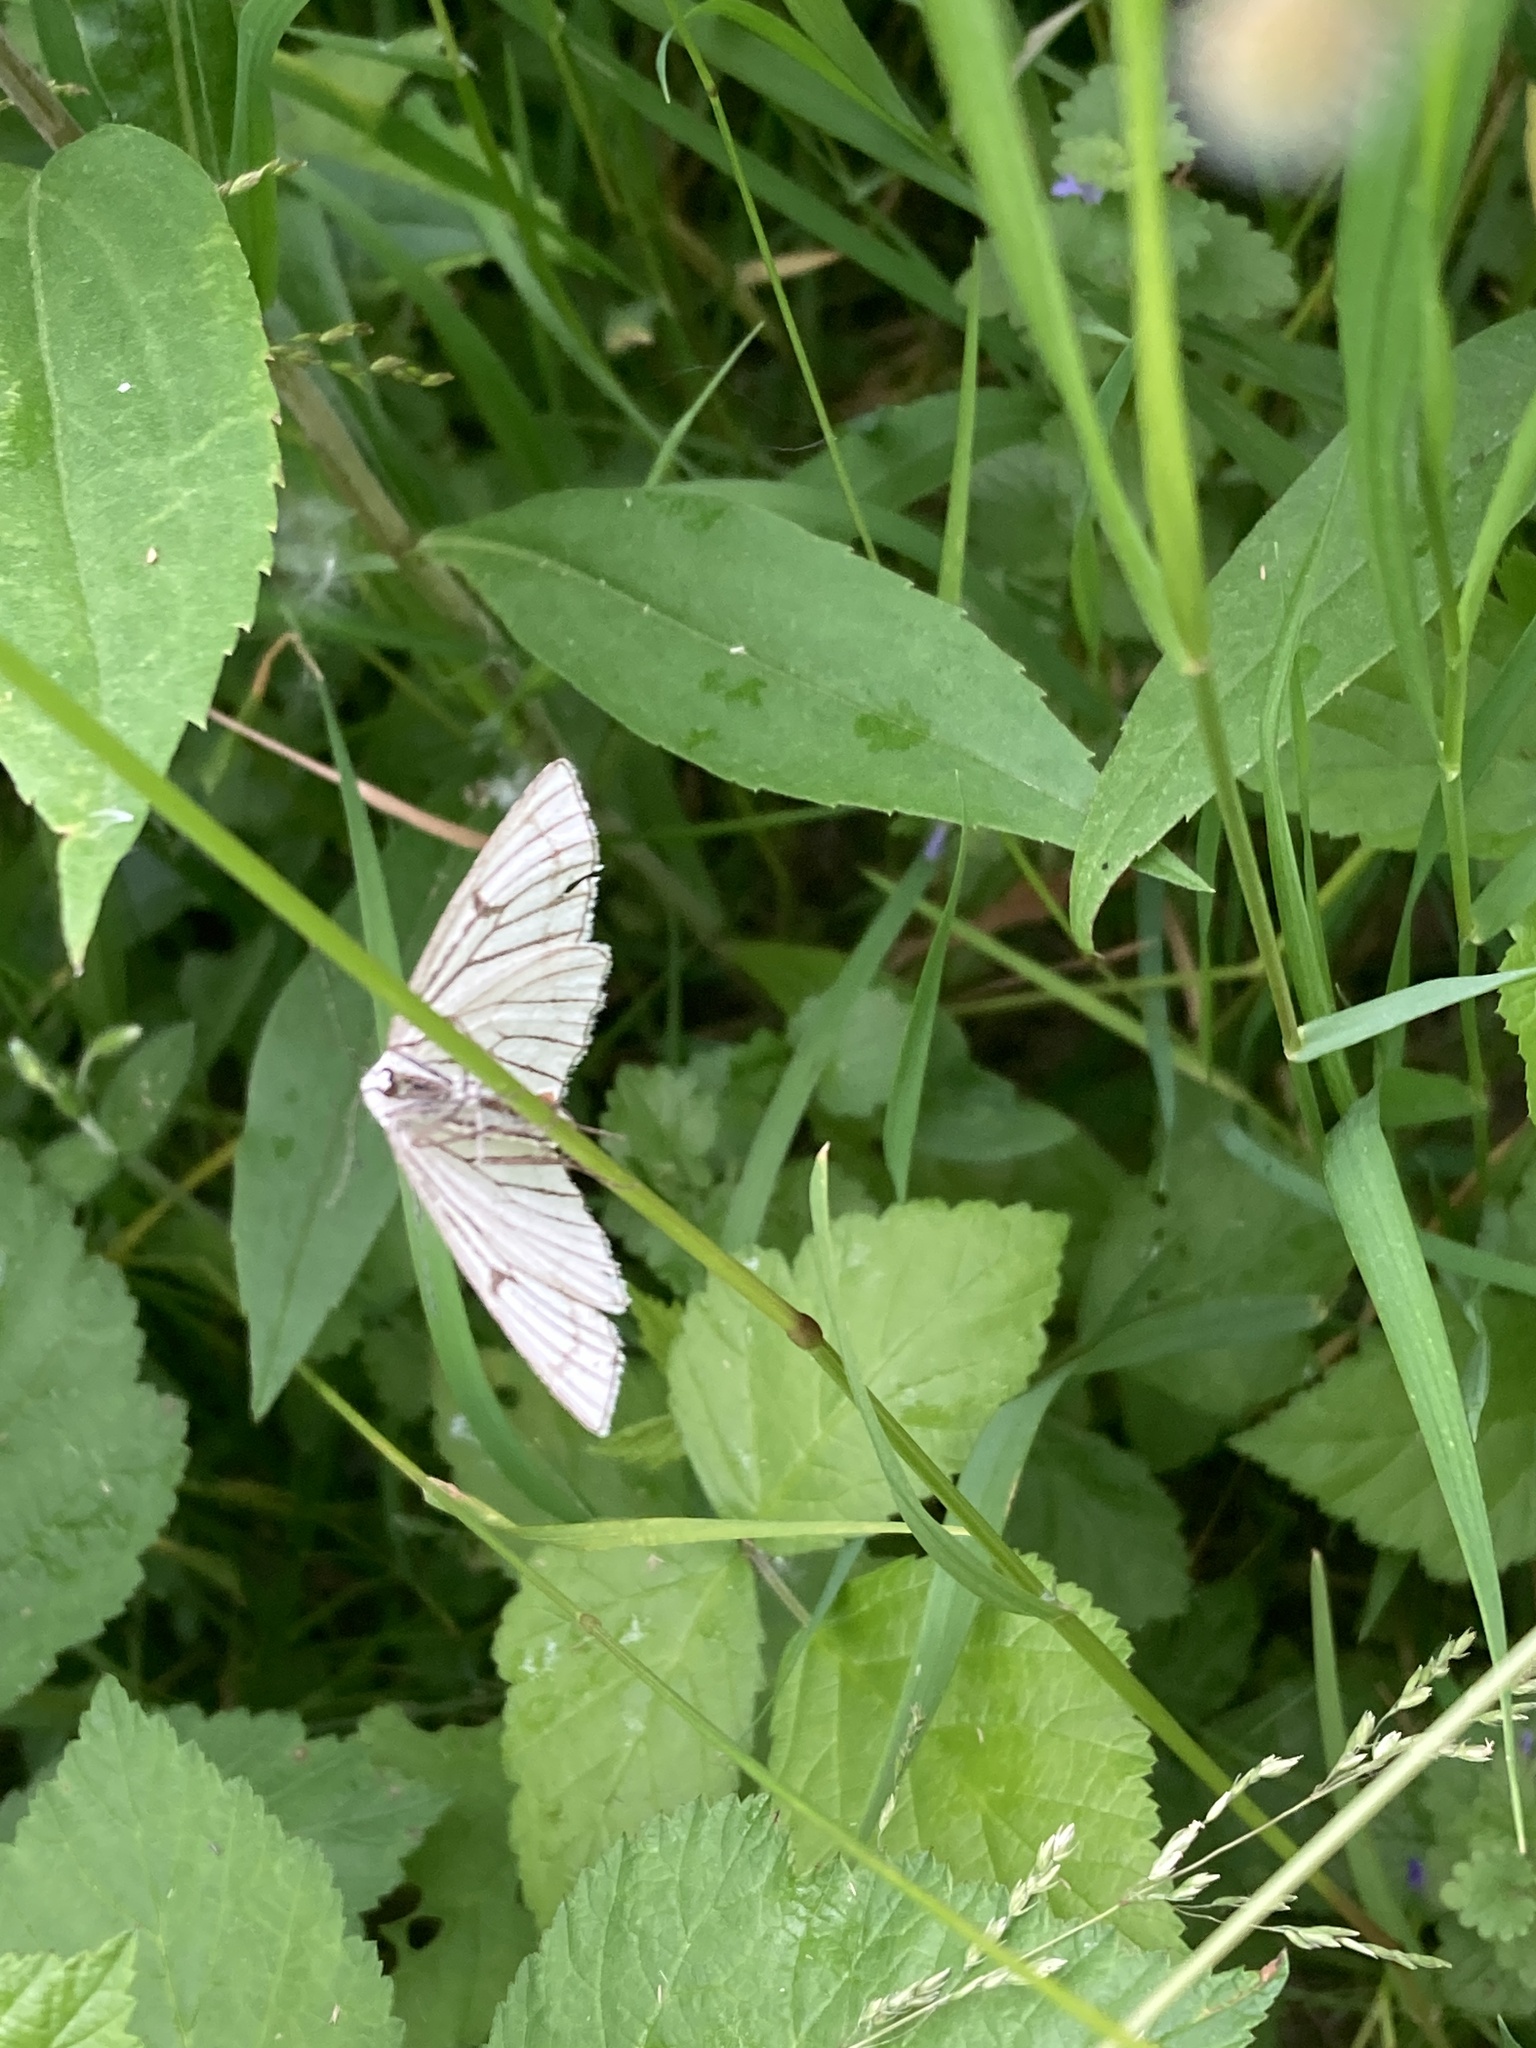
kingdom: Animalia
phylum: Arthropoda
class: Insecta
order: Lepidoptera
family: Geometridae
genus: Siona
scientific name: Siona lineata
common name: Black-veined moth
